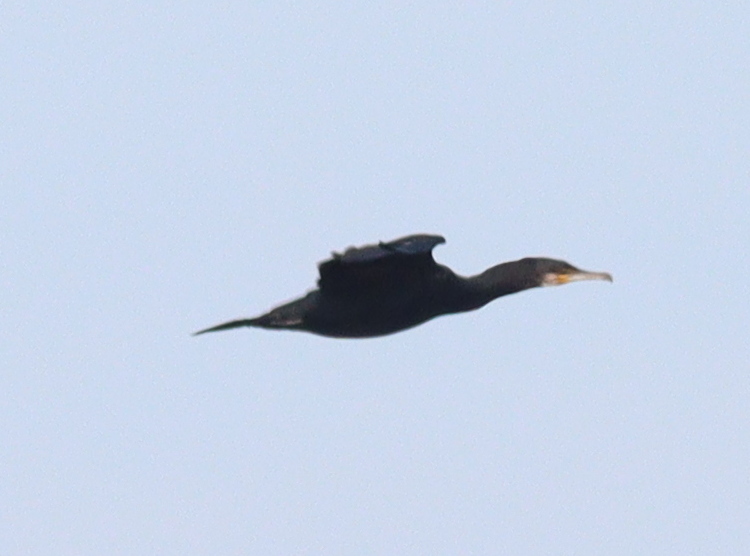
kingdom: Animalia
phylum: Chordata
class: Aves
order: Suliformes
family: Phalacrocoracidae
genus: Phalacrocorax
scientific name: Phalacrocorax carbo
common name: Great cormorant
